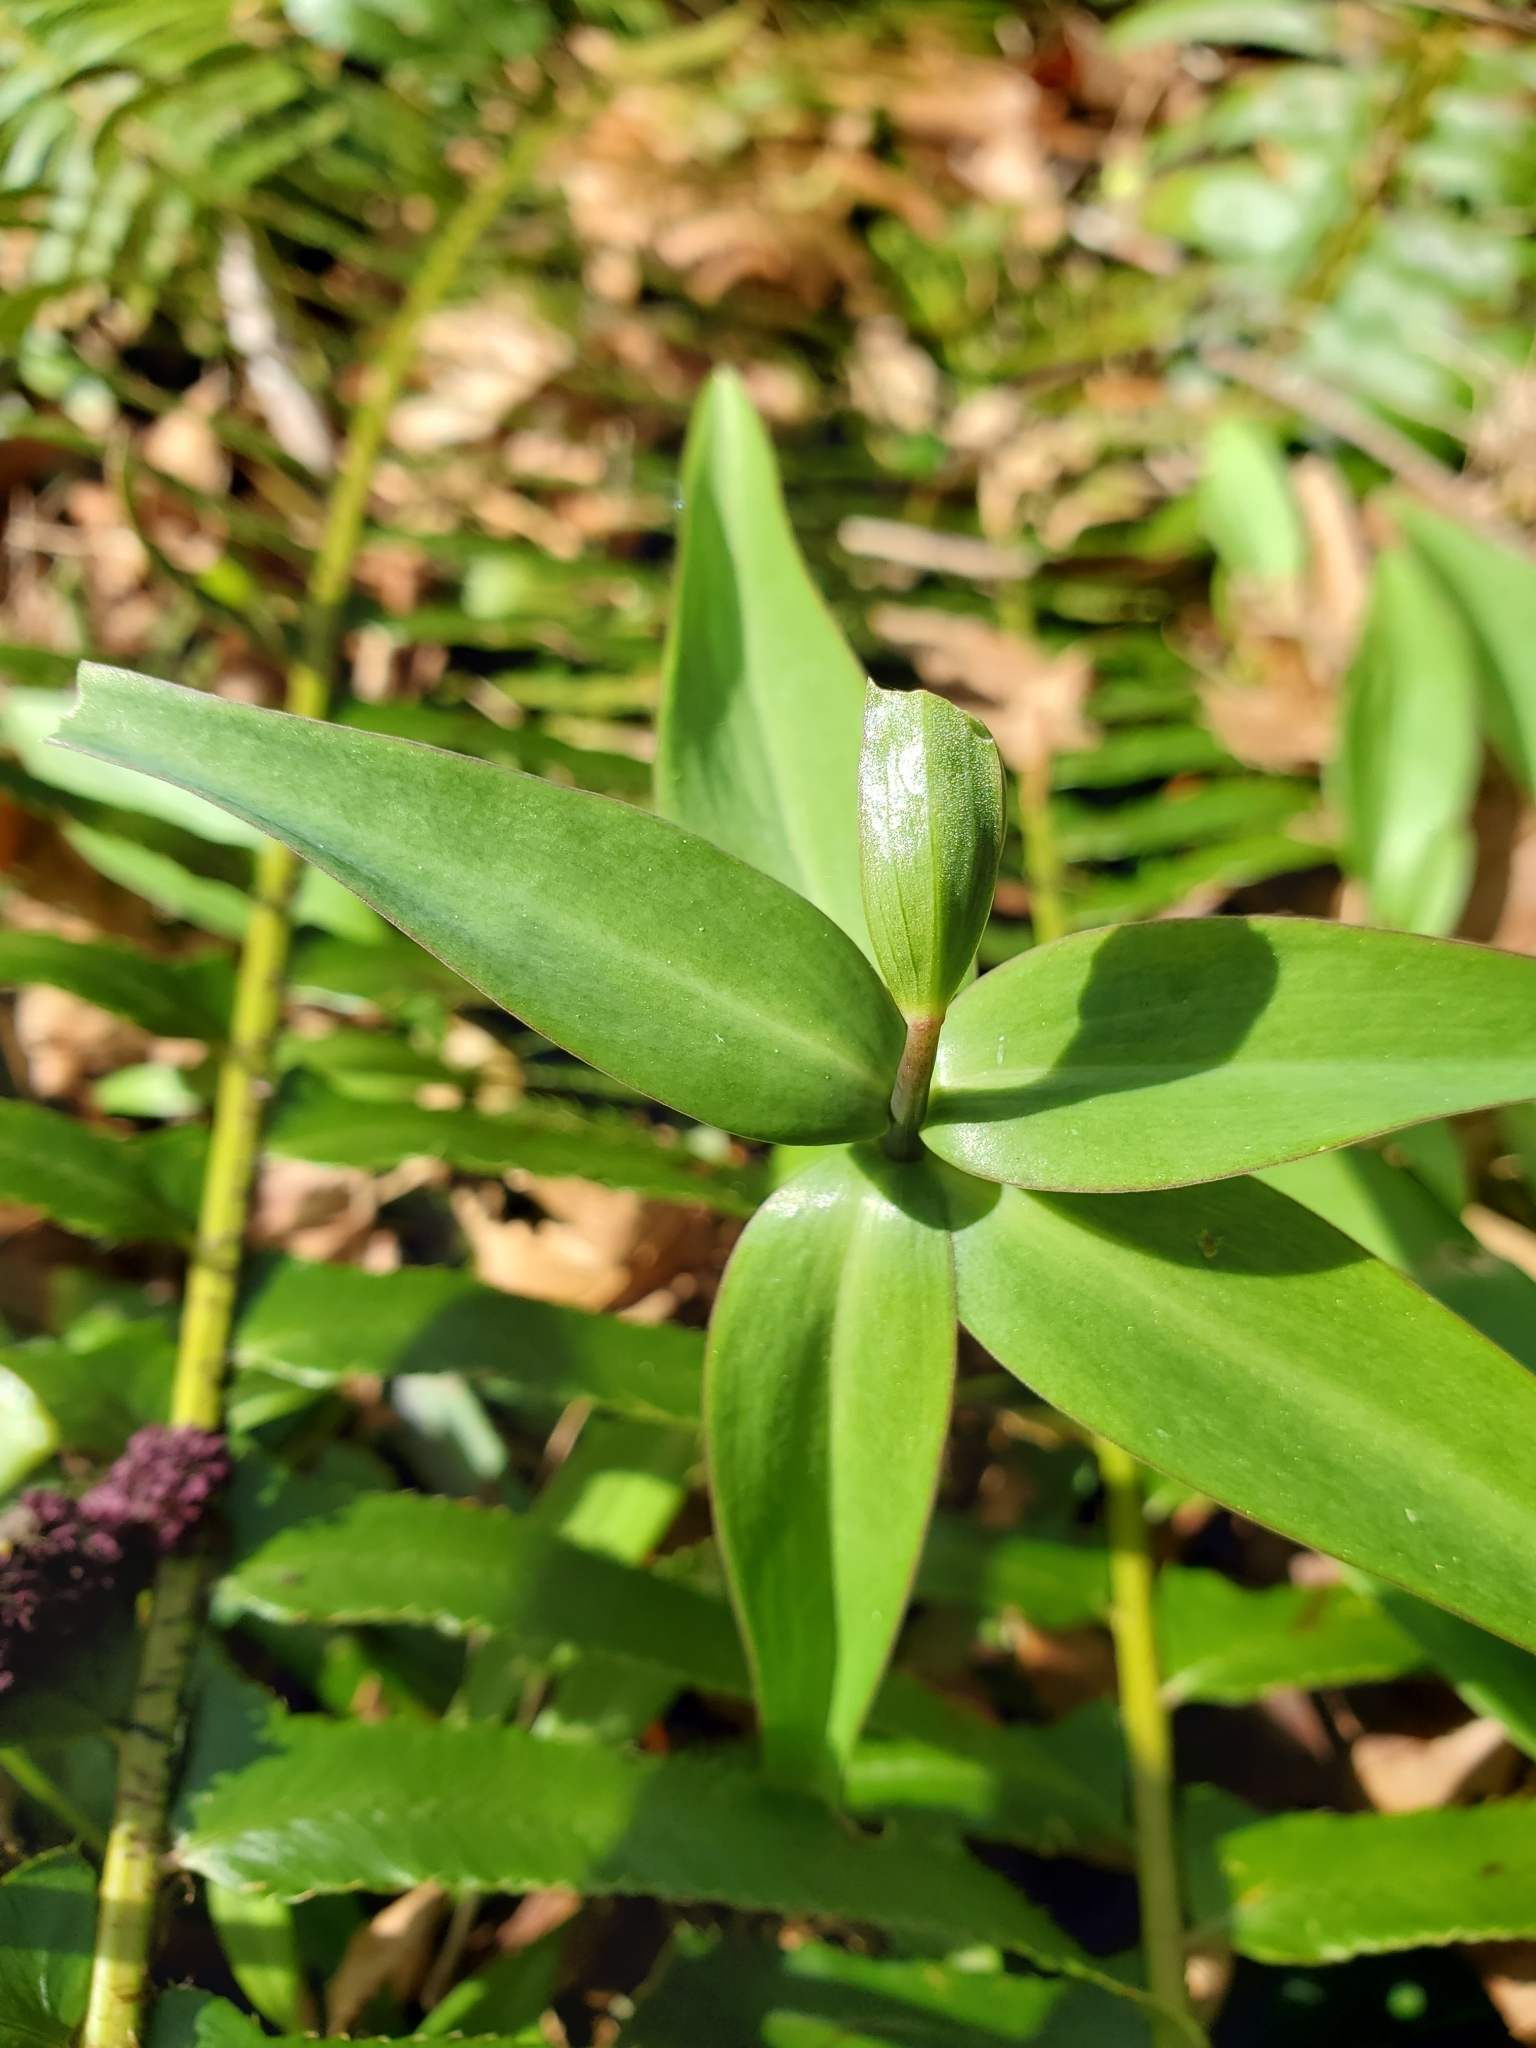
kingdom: Plantae
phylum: Tracheophyta
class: Liliopsida
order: Liliales
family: Liliaceae
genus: Fritillaria
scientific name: Fritillaria affinis
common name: Ojai fritillary
